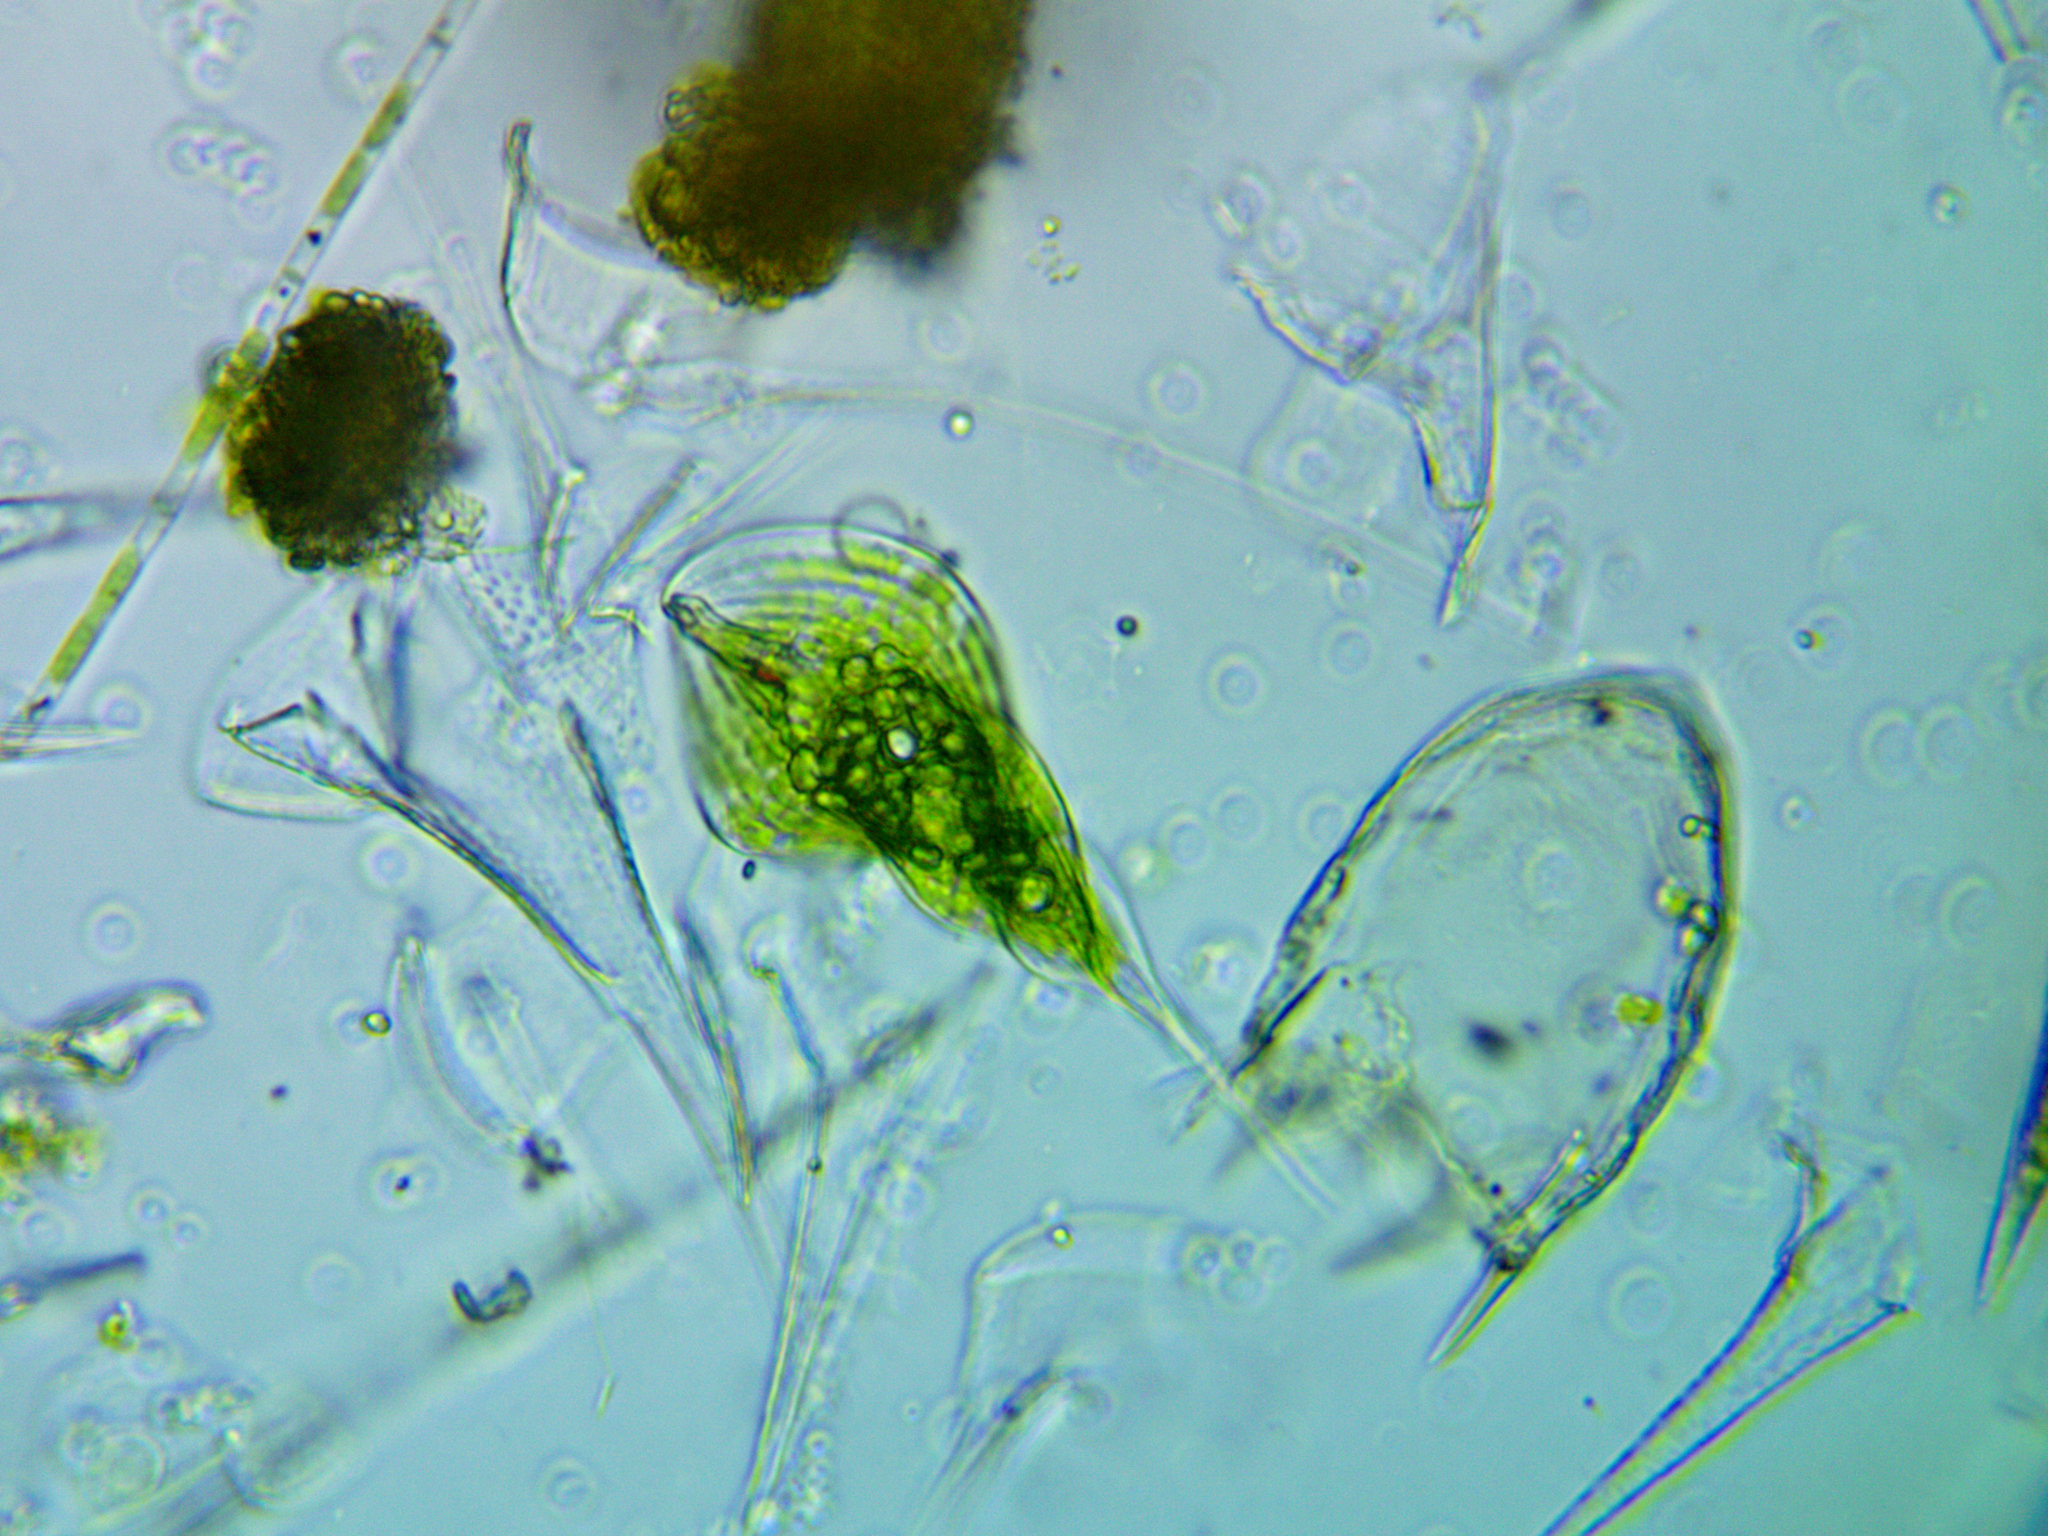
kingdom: Protozoa
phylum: Euglenozoa
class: Euglenoidea
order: Euglenida
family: Phacidae
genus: Phacus
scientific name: Phacus tortus
